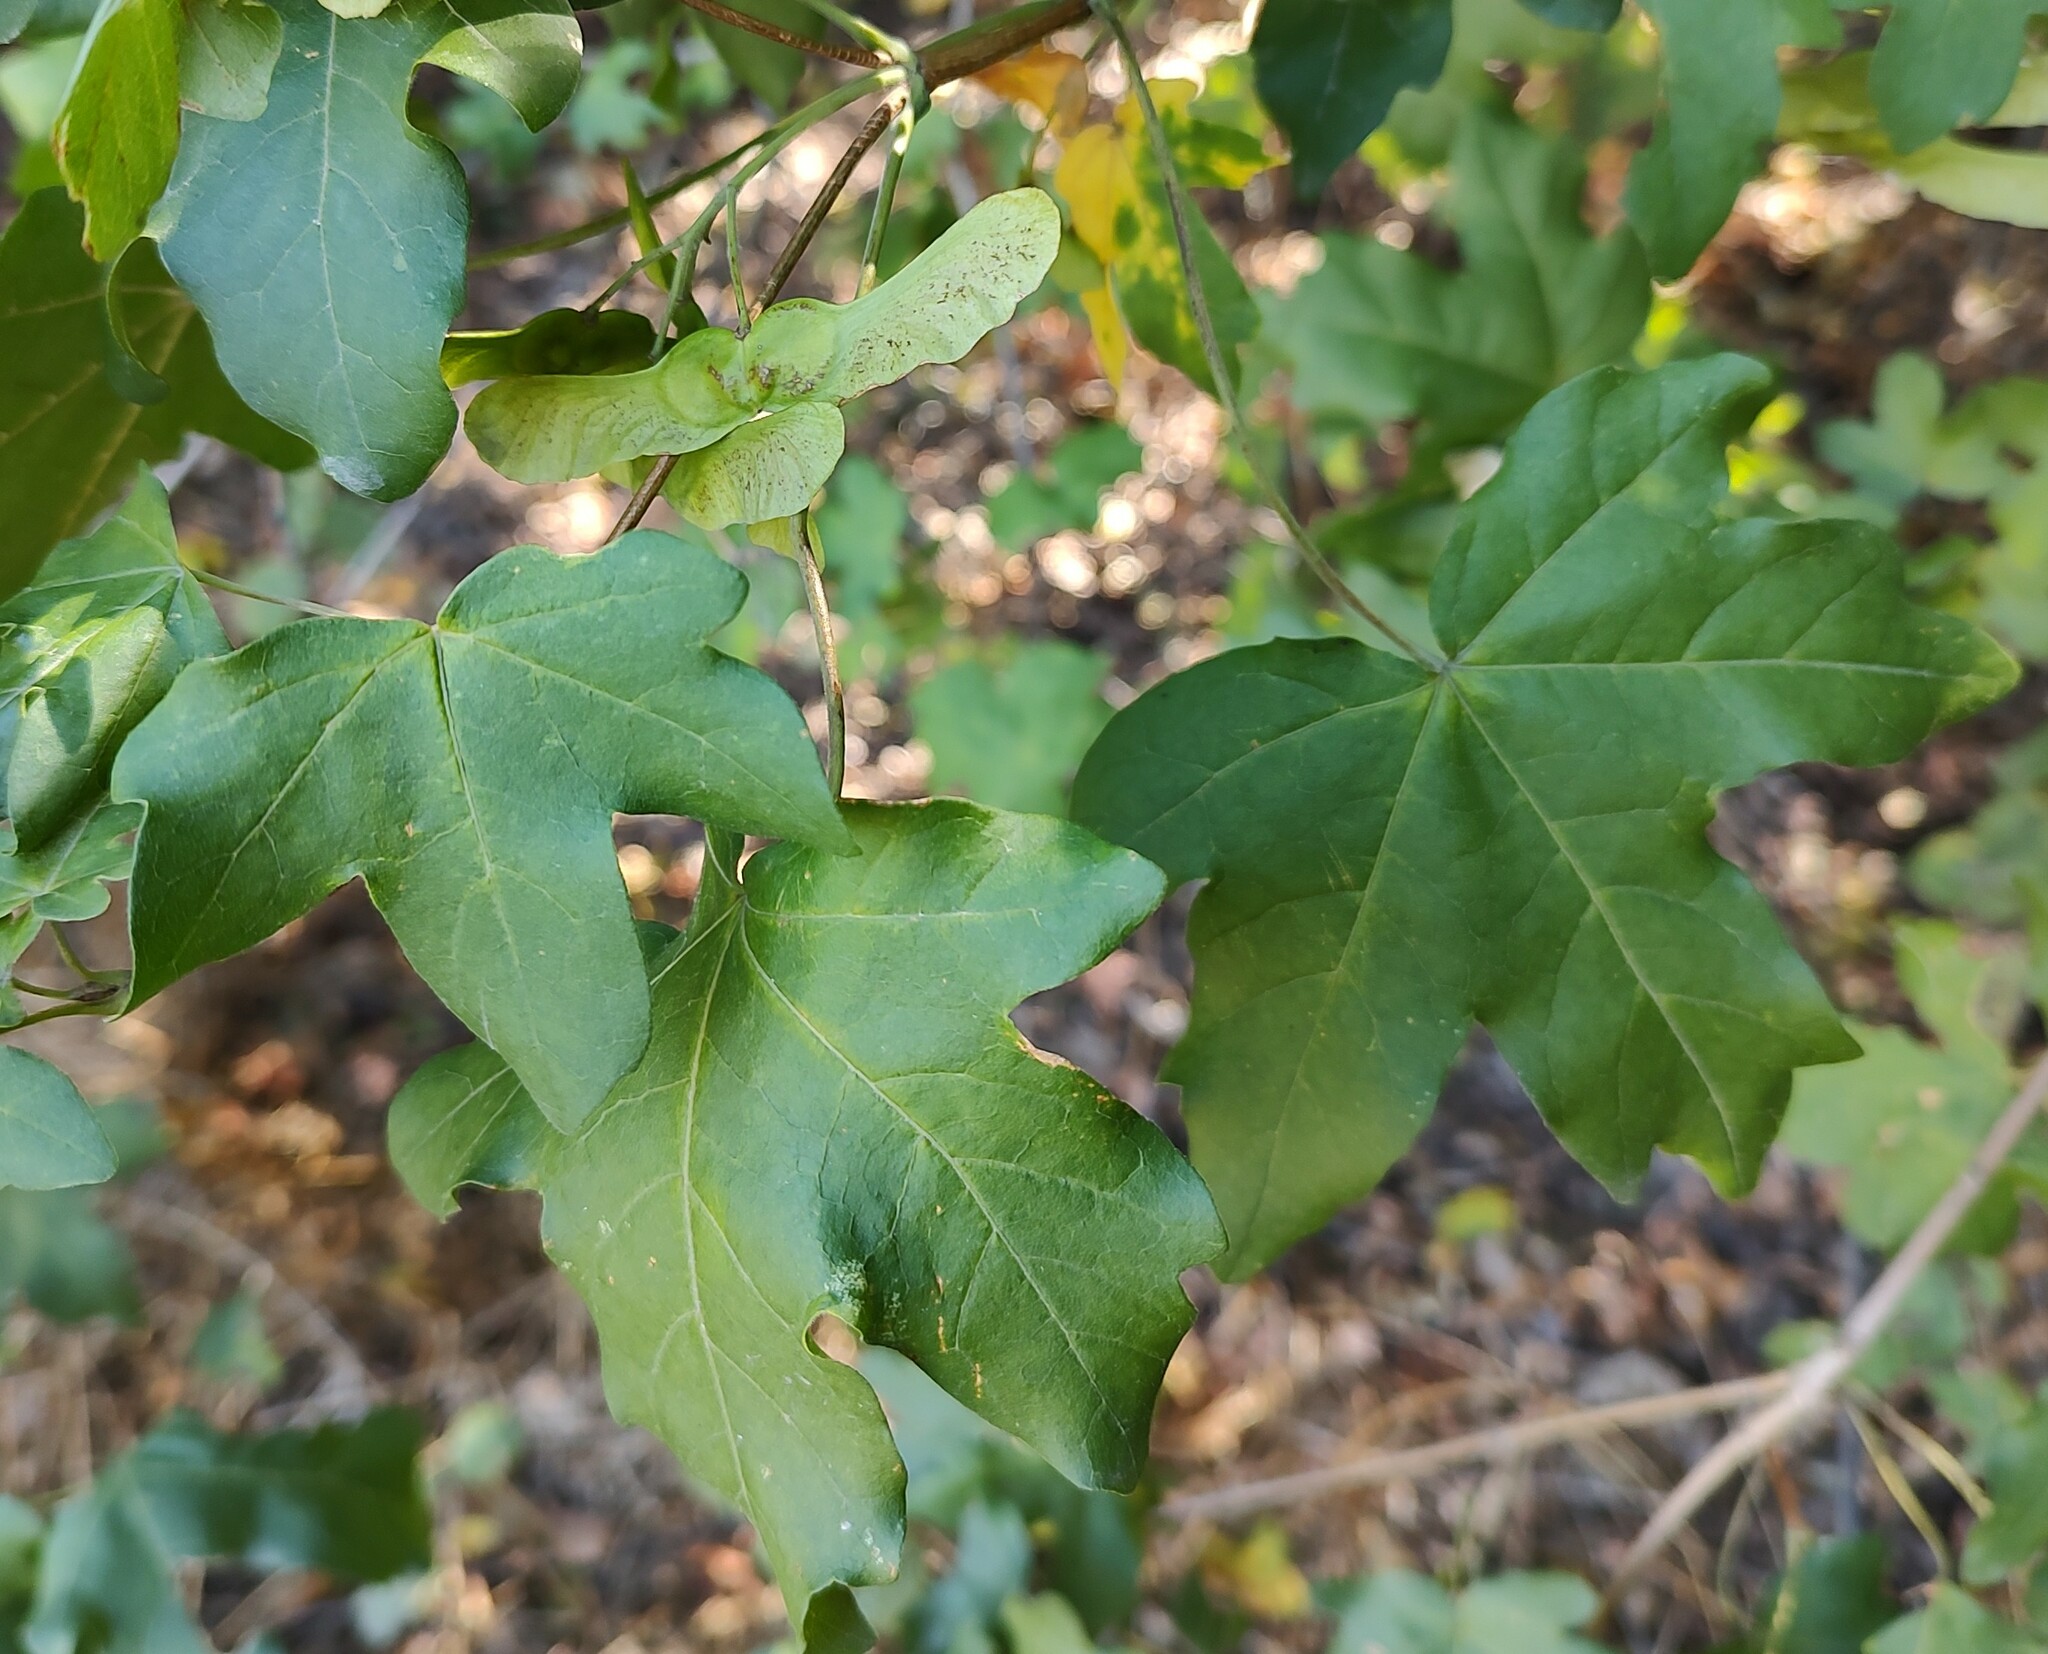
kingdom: Plantae
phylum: Tracheophyta
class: Magnoliopsida
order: Sapindales
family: Sapindaceae
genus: Acer
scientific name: Acer campestre
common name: Field maple
